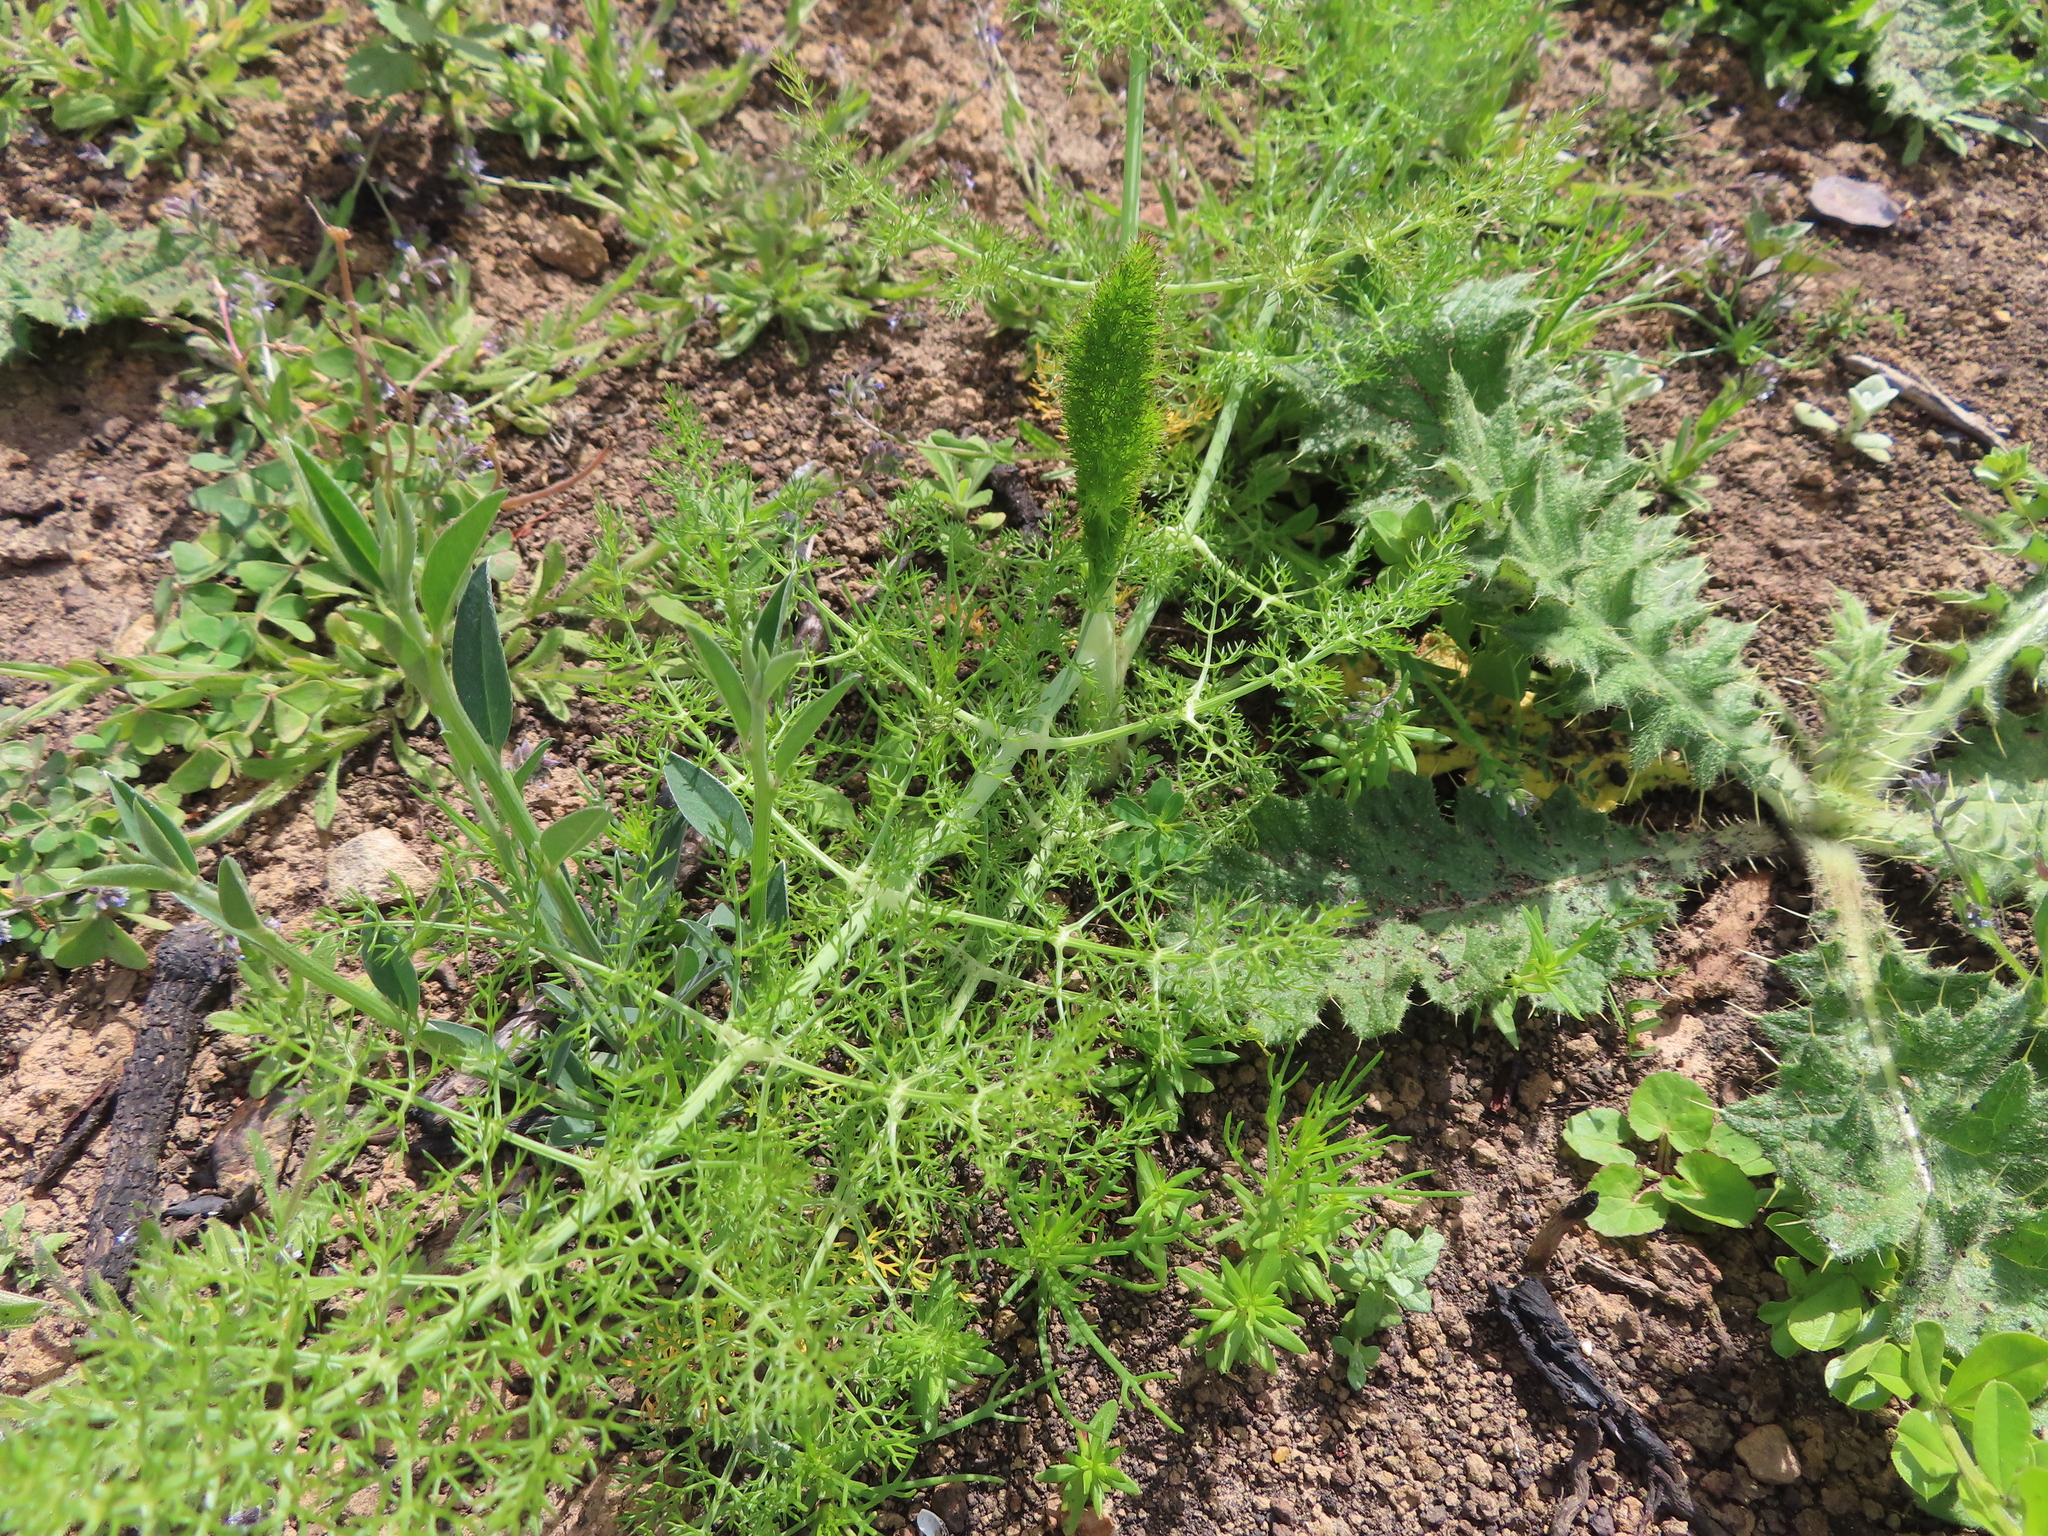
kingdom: Plantae
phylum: Tracheophyta
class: Magnoliopsida
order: Apiales
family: Apiaceae
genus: Foeniculum
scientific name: Foeniculum vulgare
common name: Fennel
